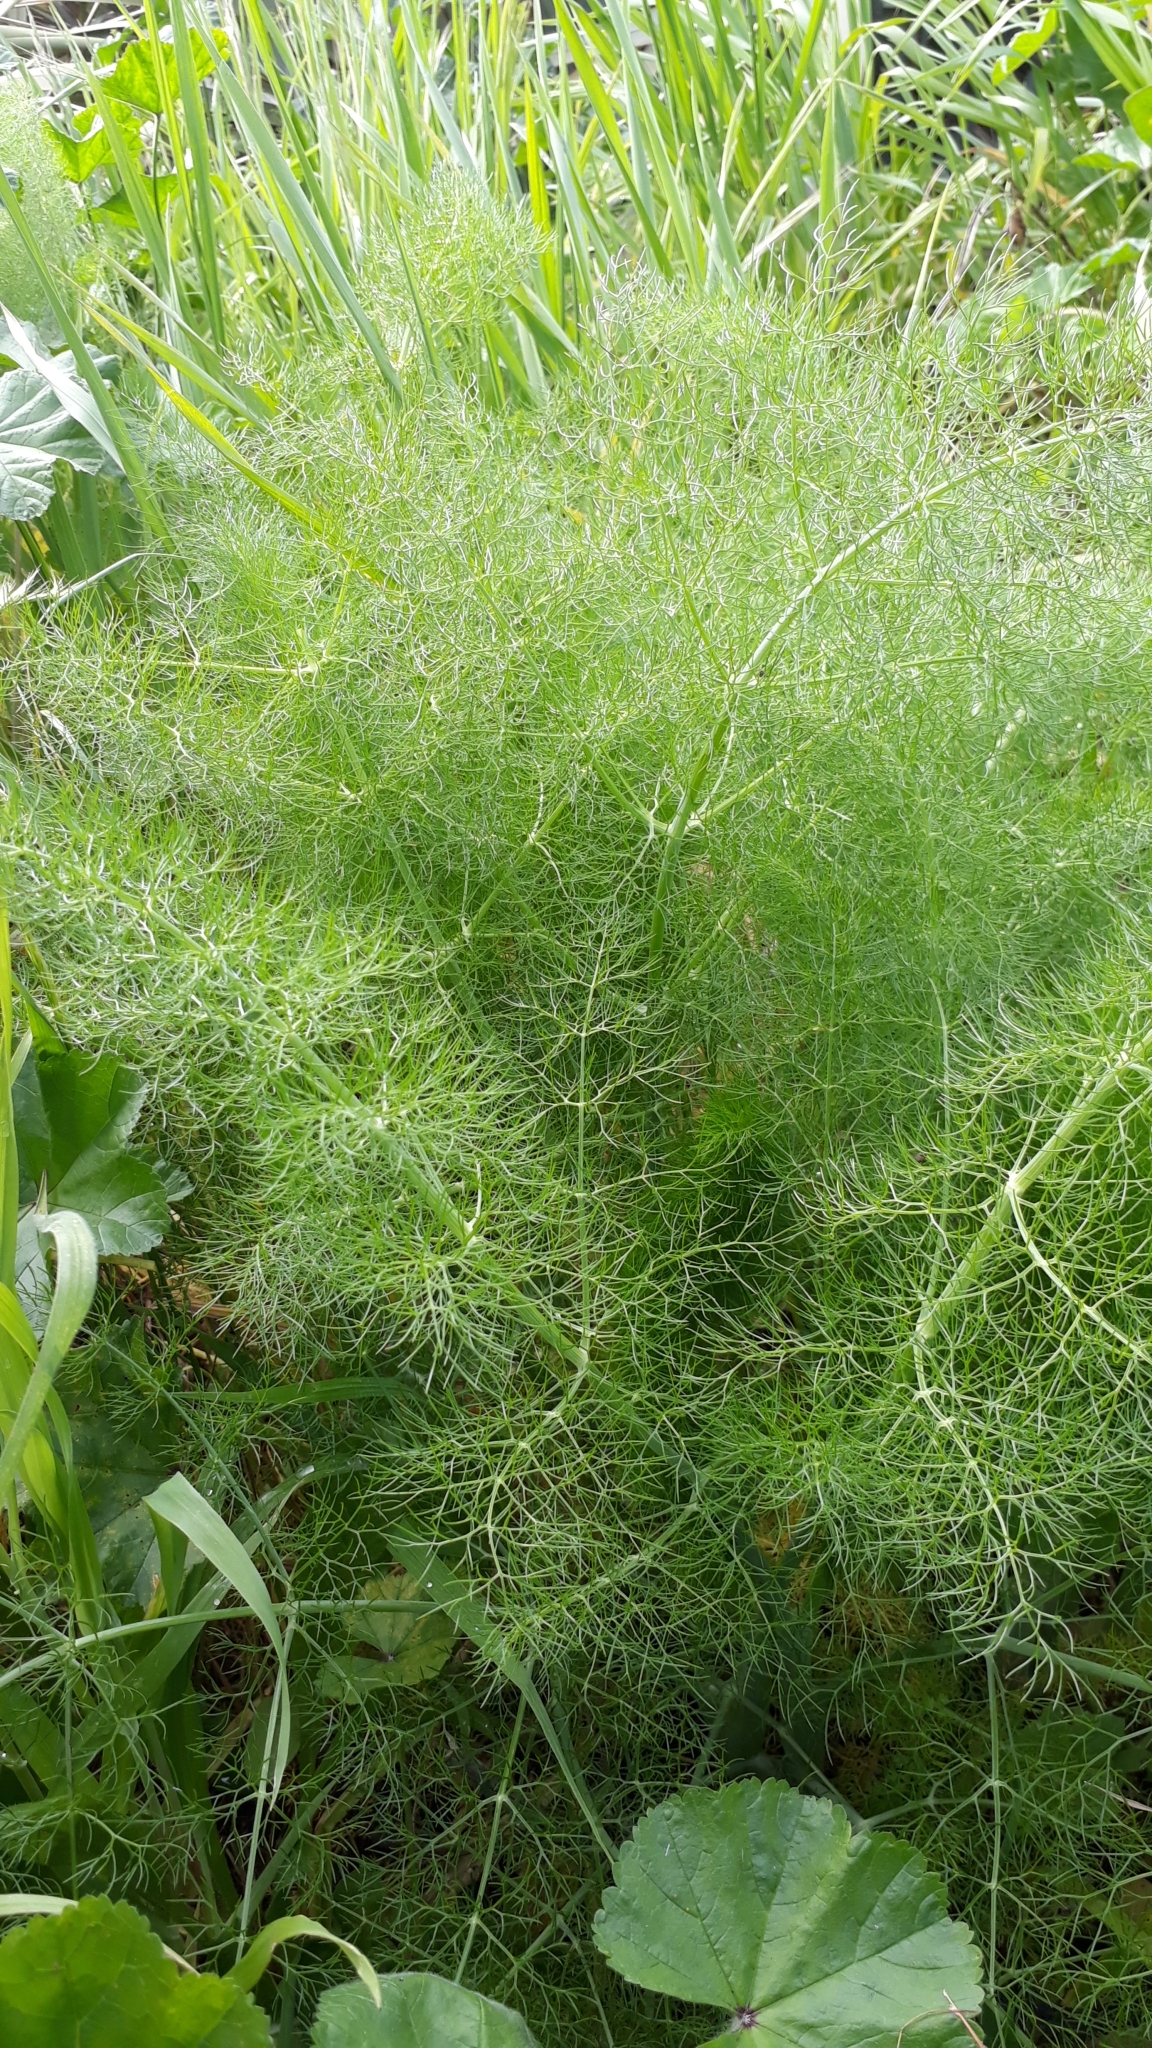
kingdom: Plantae
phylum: Tracheophyta
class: Magnoliopsida
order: Apiales
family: Apiaceae
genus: Foeniculum
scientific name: Foeniculum vulgare
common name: Fennel
